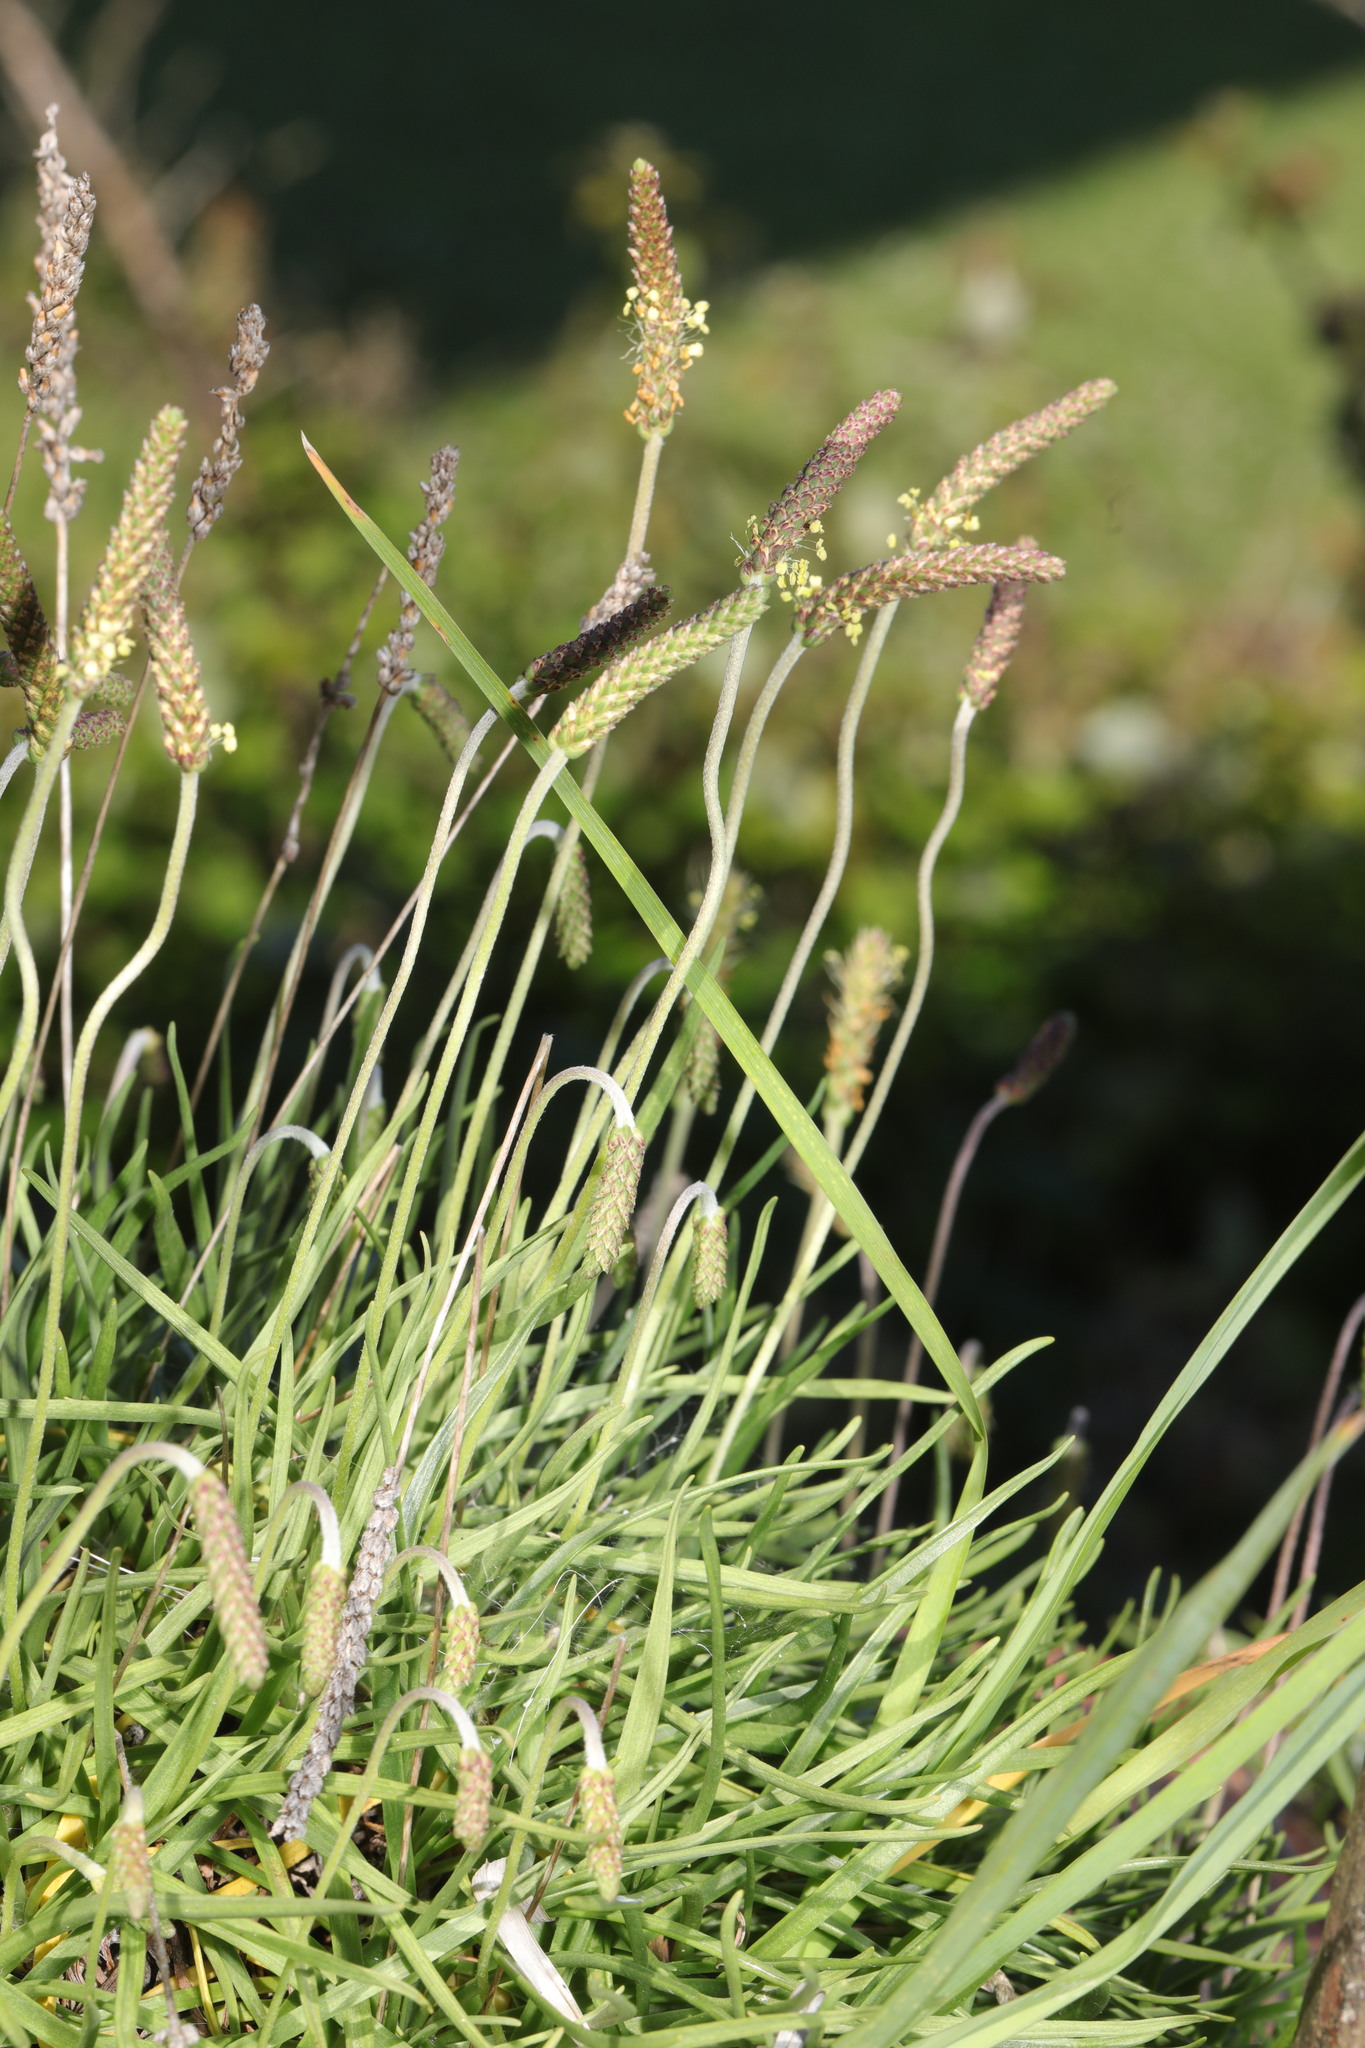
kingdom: Plantae
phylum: Tracheophyta
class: Magnoliopsida
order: Lamiales
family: Plantaginaceae
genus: Plantago
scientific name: Plantago coronopus
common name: Buck's-horn plantain
